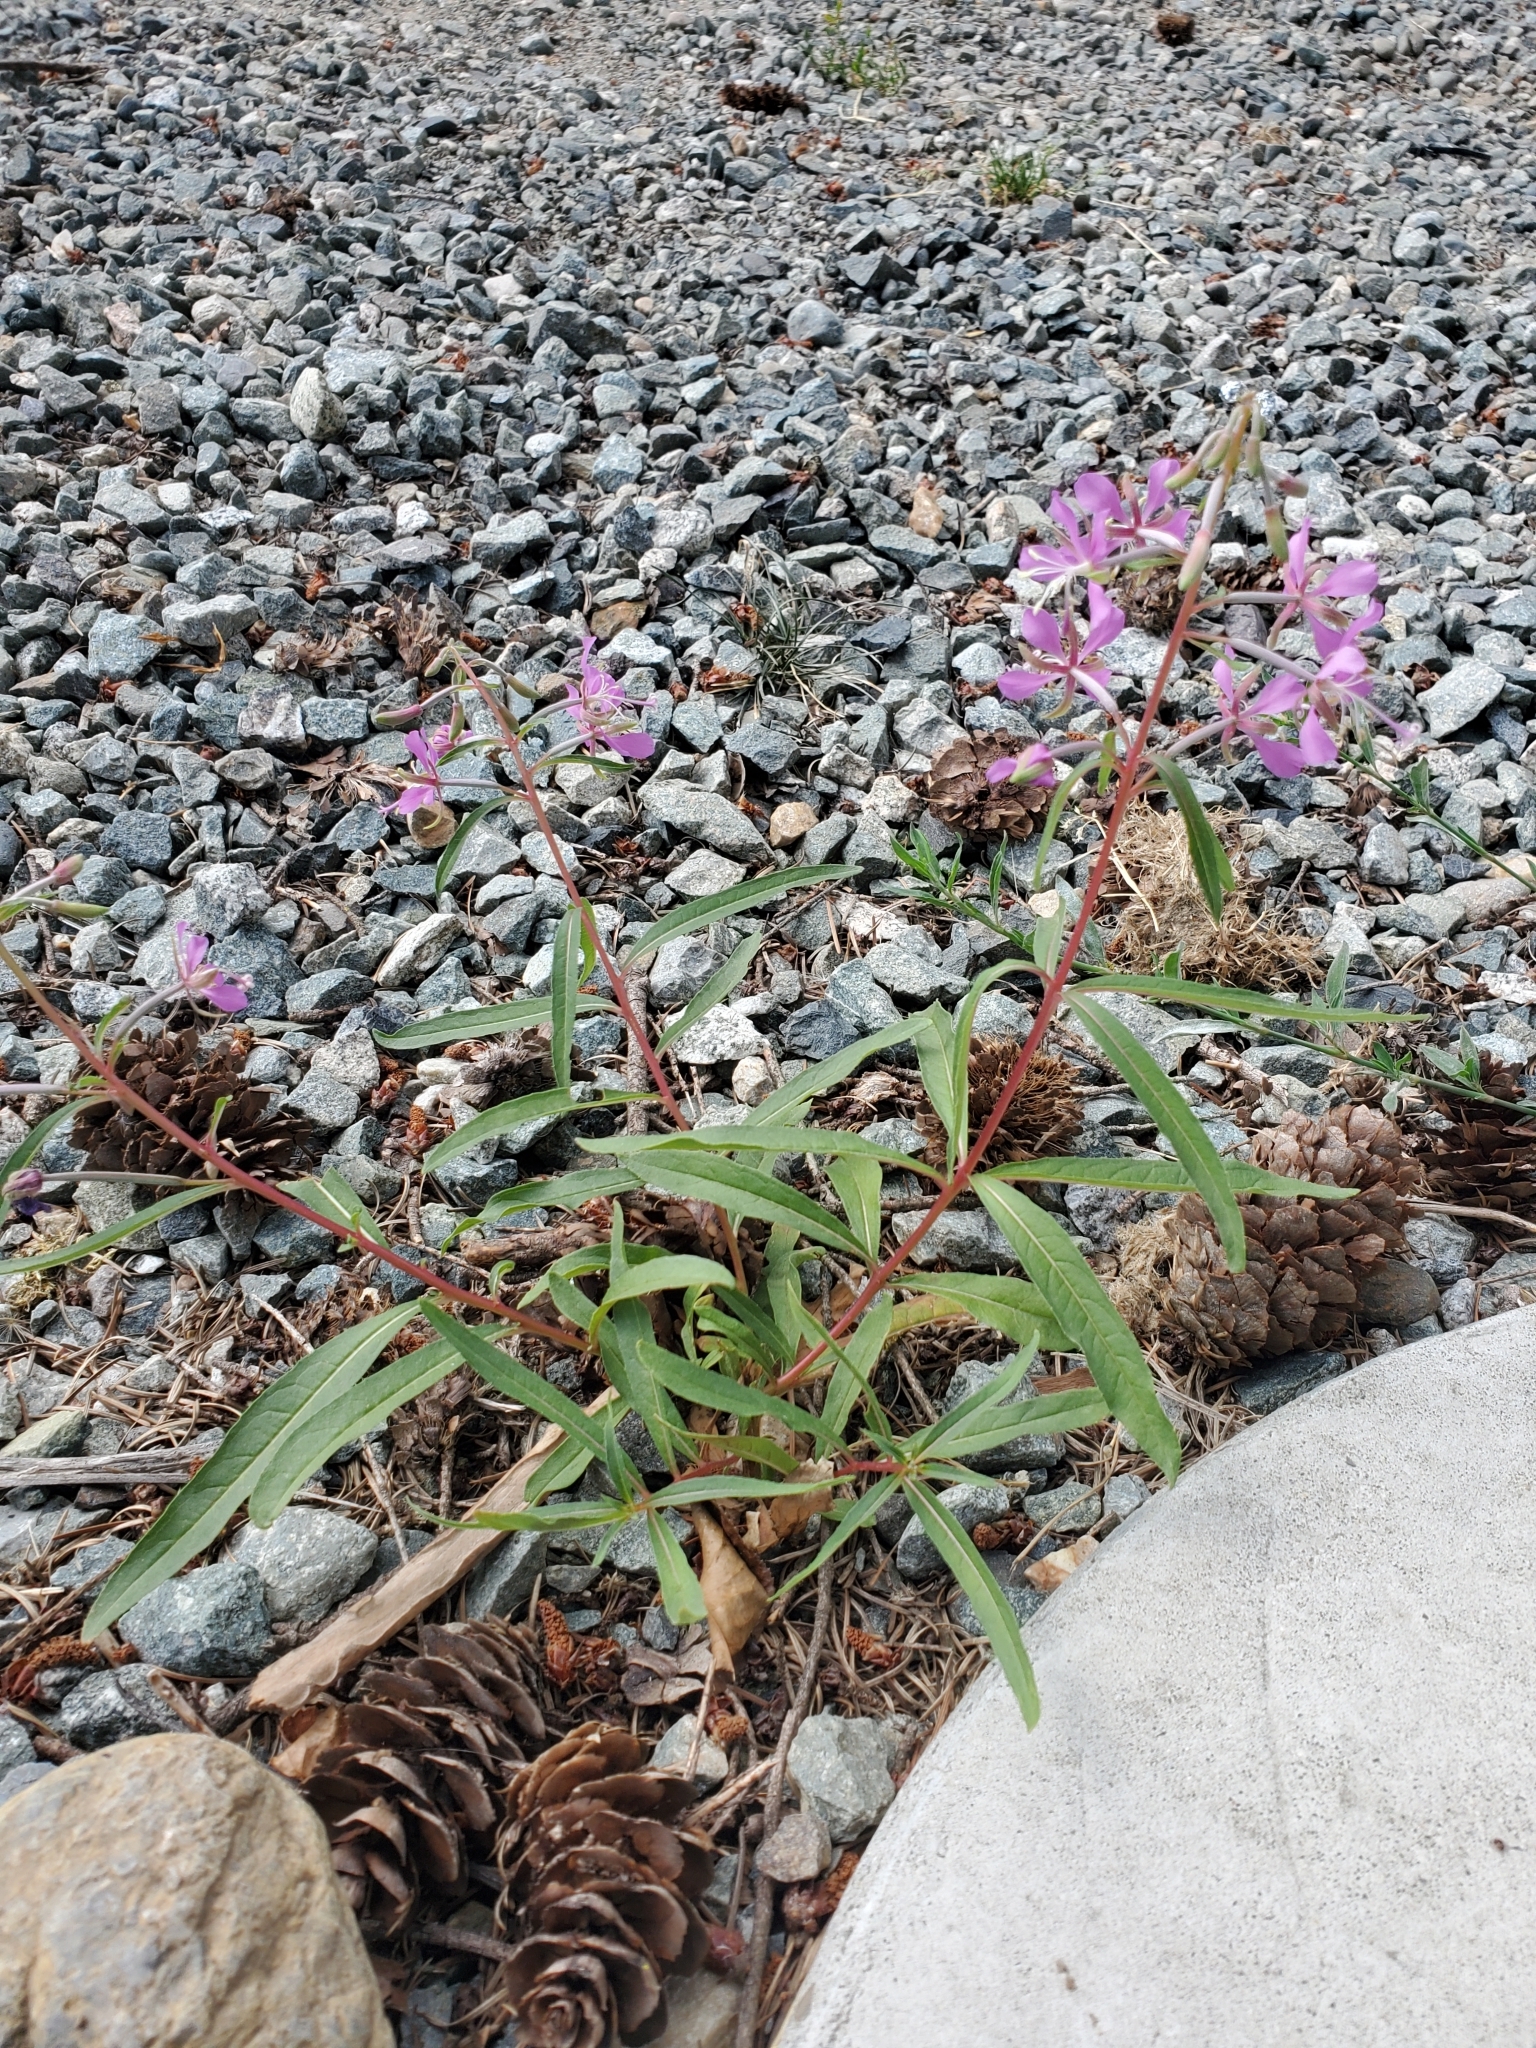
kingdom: Plantae
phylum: Tracheophyta
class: Magnoliopsida
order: Myrtales
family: Onagraceae
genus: Chamaenerion
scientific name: Chamaenerion angustifolium
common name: Fireweed
